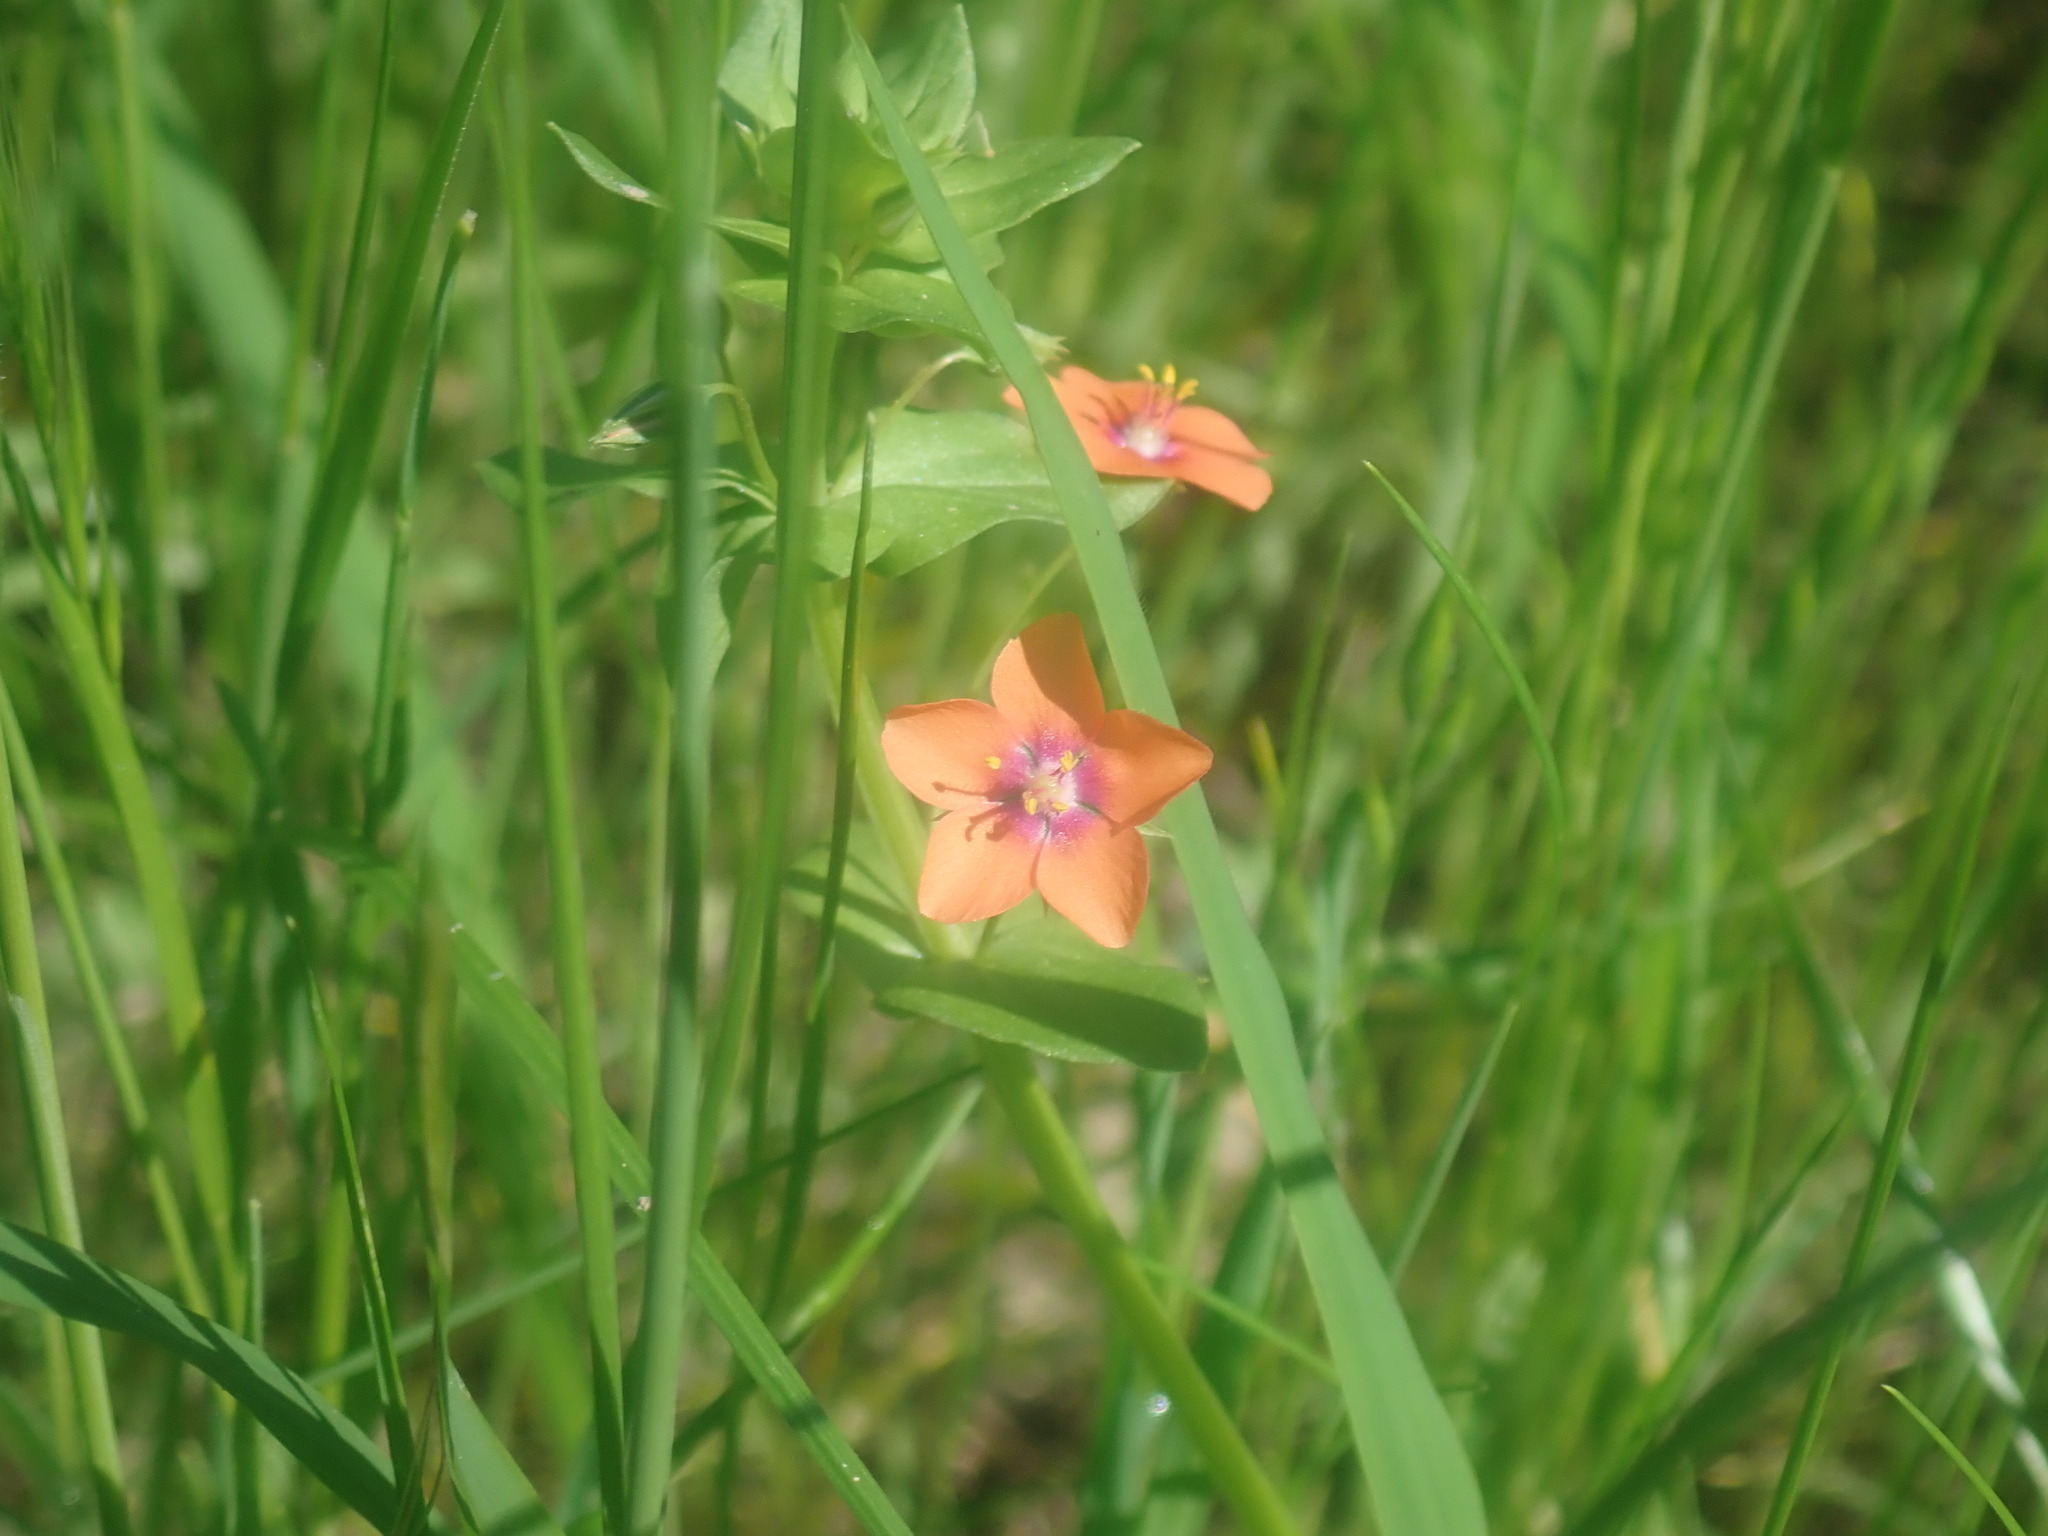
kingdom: Plantae
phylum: Tracheophyta
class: Magnoliopsida
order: Ericales
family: Primulaceae
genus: Lysimachia
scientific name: Lysimachia arvensis
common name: Scarlet pimpernel
